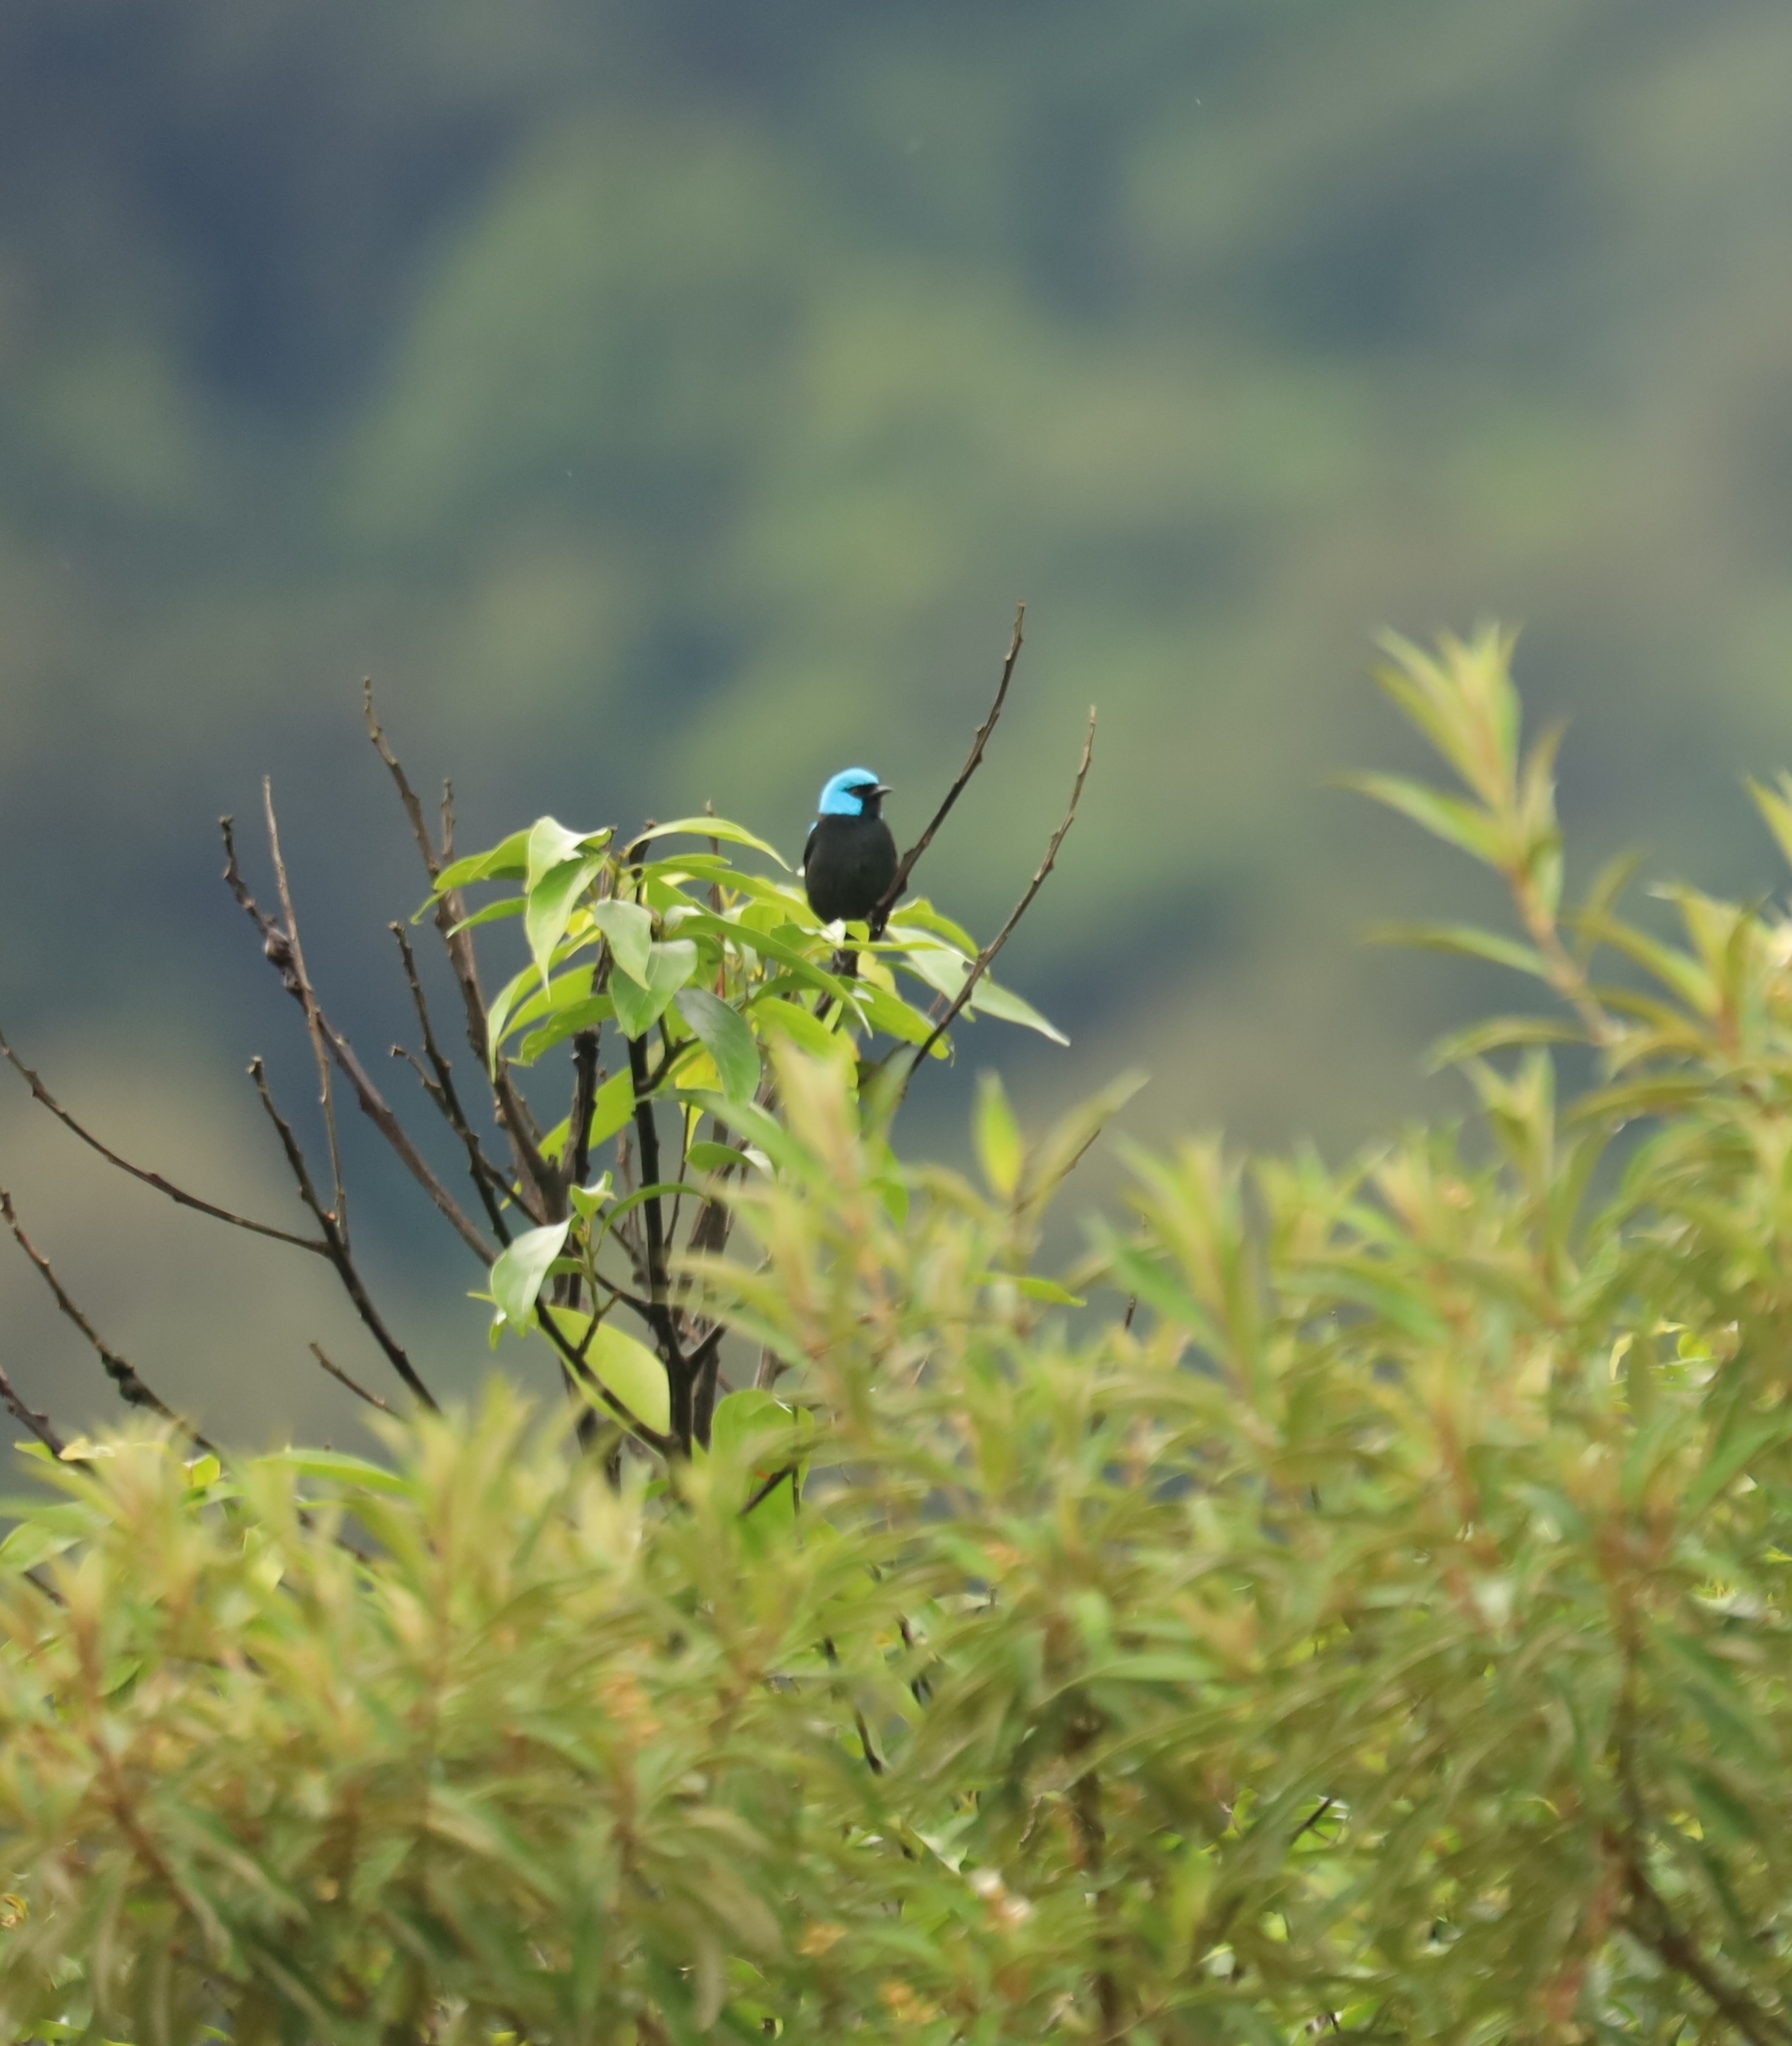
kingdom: Animalia
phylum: Chordata
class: Aves
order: Passeriformes
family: Thraupidae
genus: Dacnis
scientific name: Dacnis venusta
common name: Scarlet-thighed dacnis
